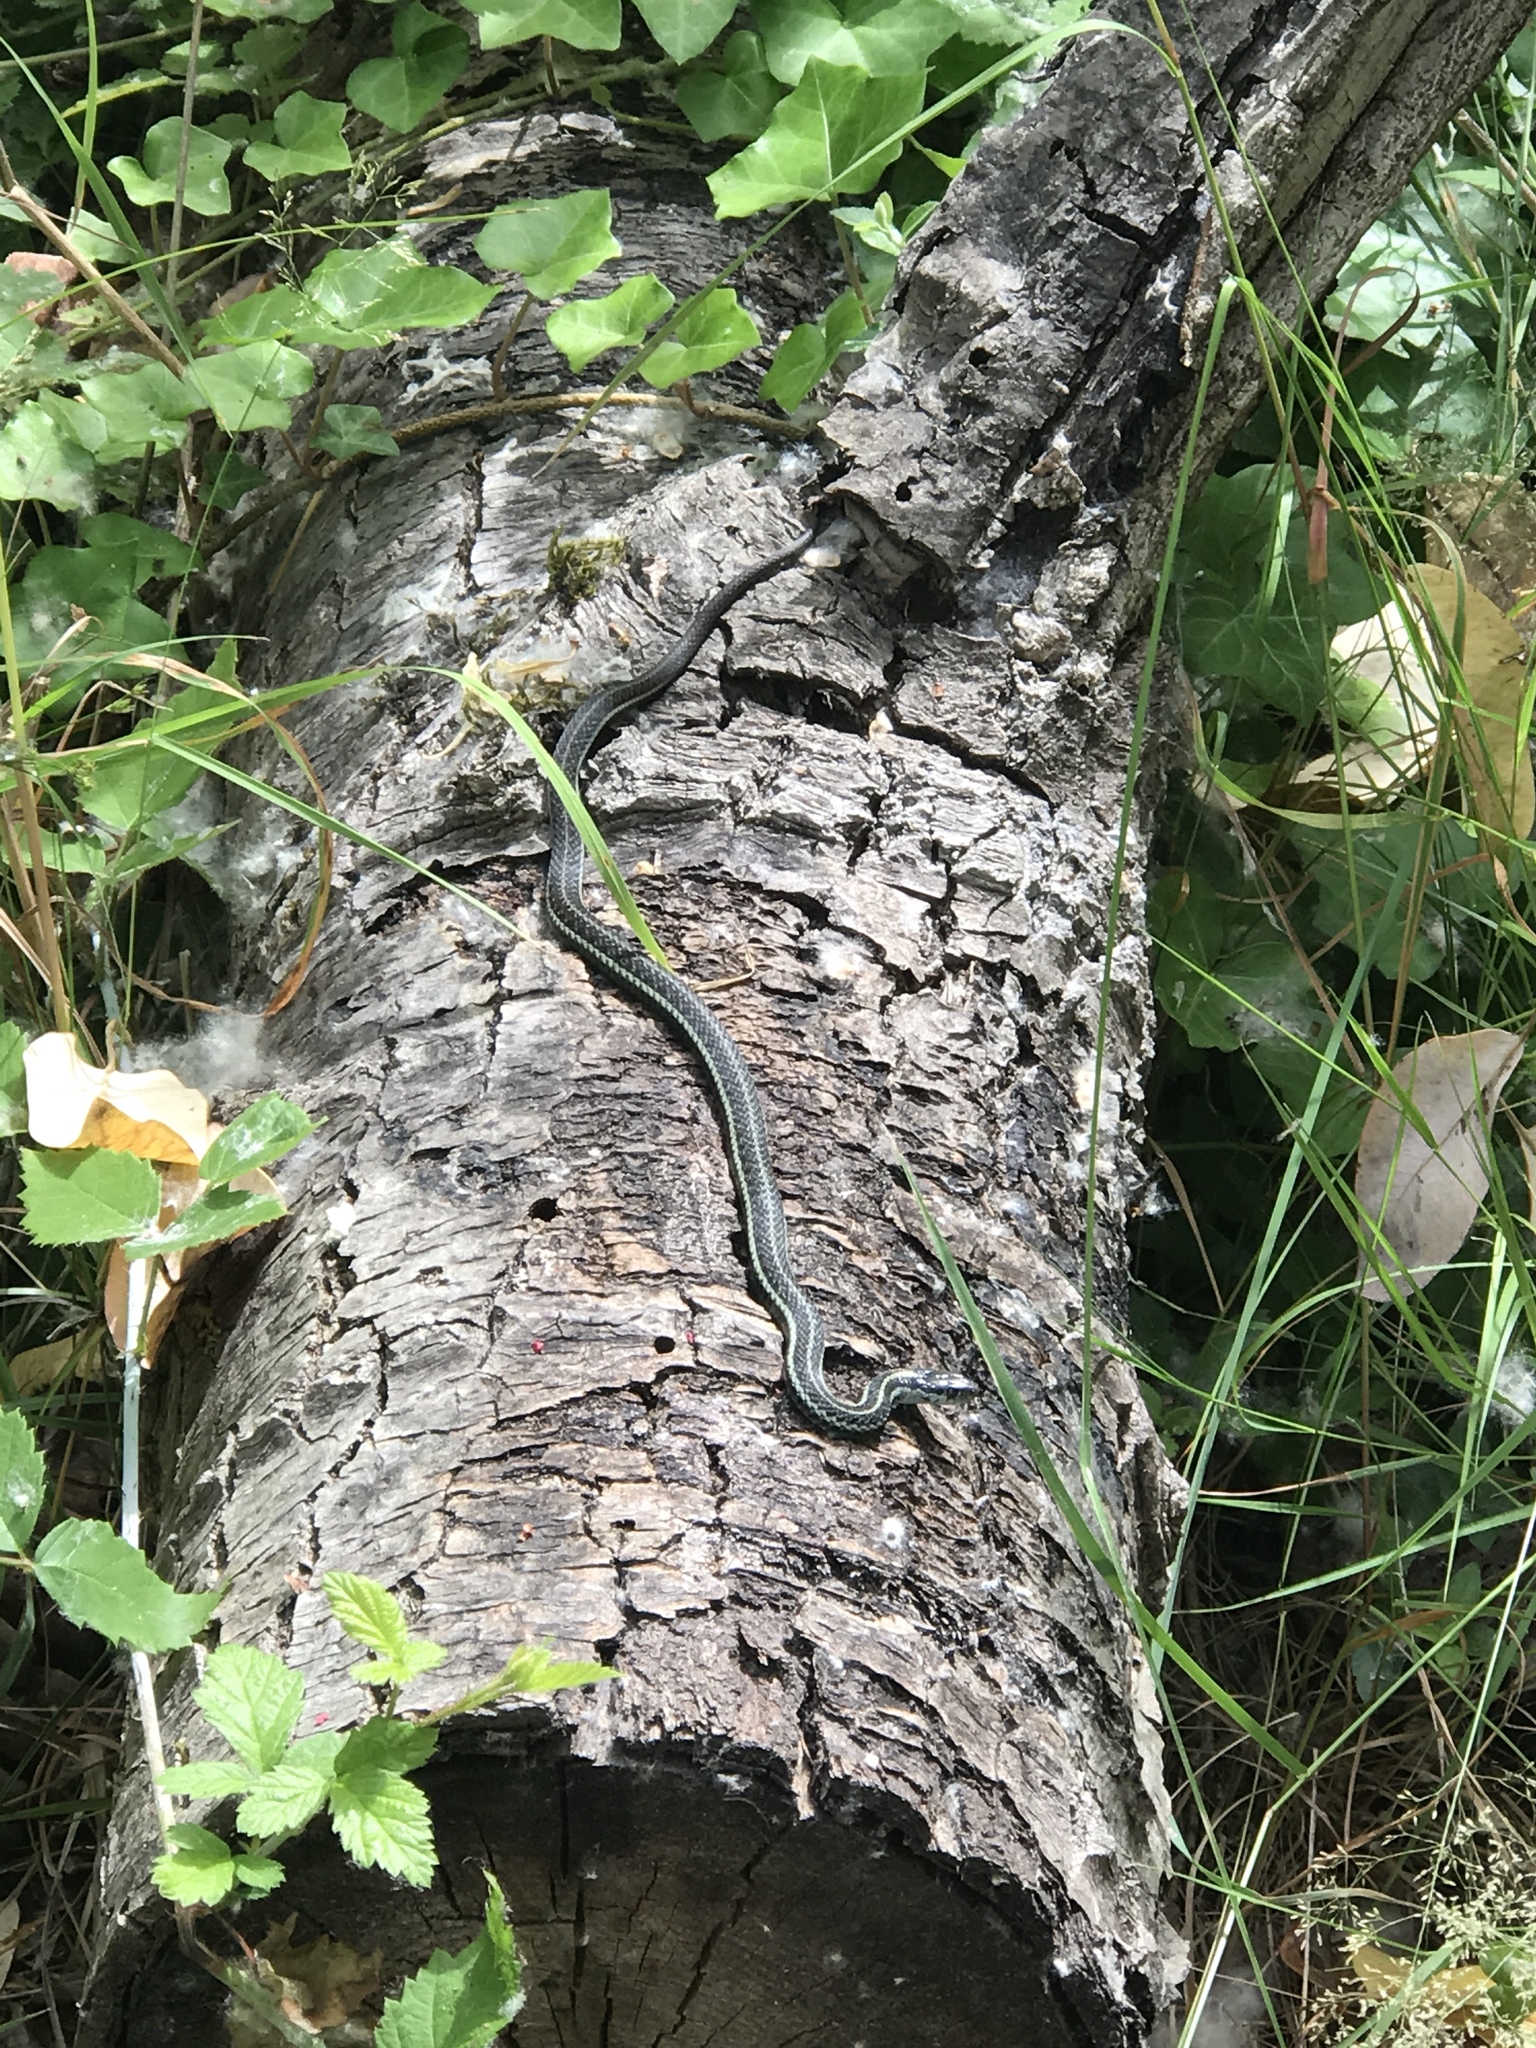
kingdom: Animalia
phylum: Chordata
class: Squamata
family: Colubridae
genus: Thamnophis
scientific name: Thamnophis ordinoides
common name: Northwestern garter snake
